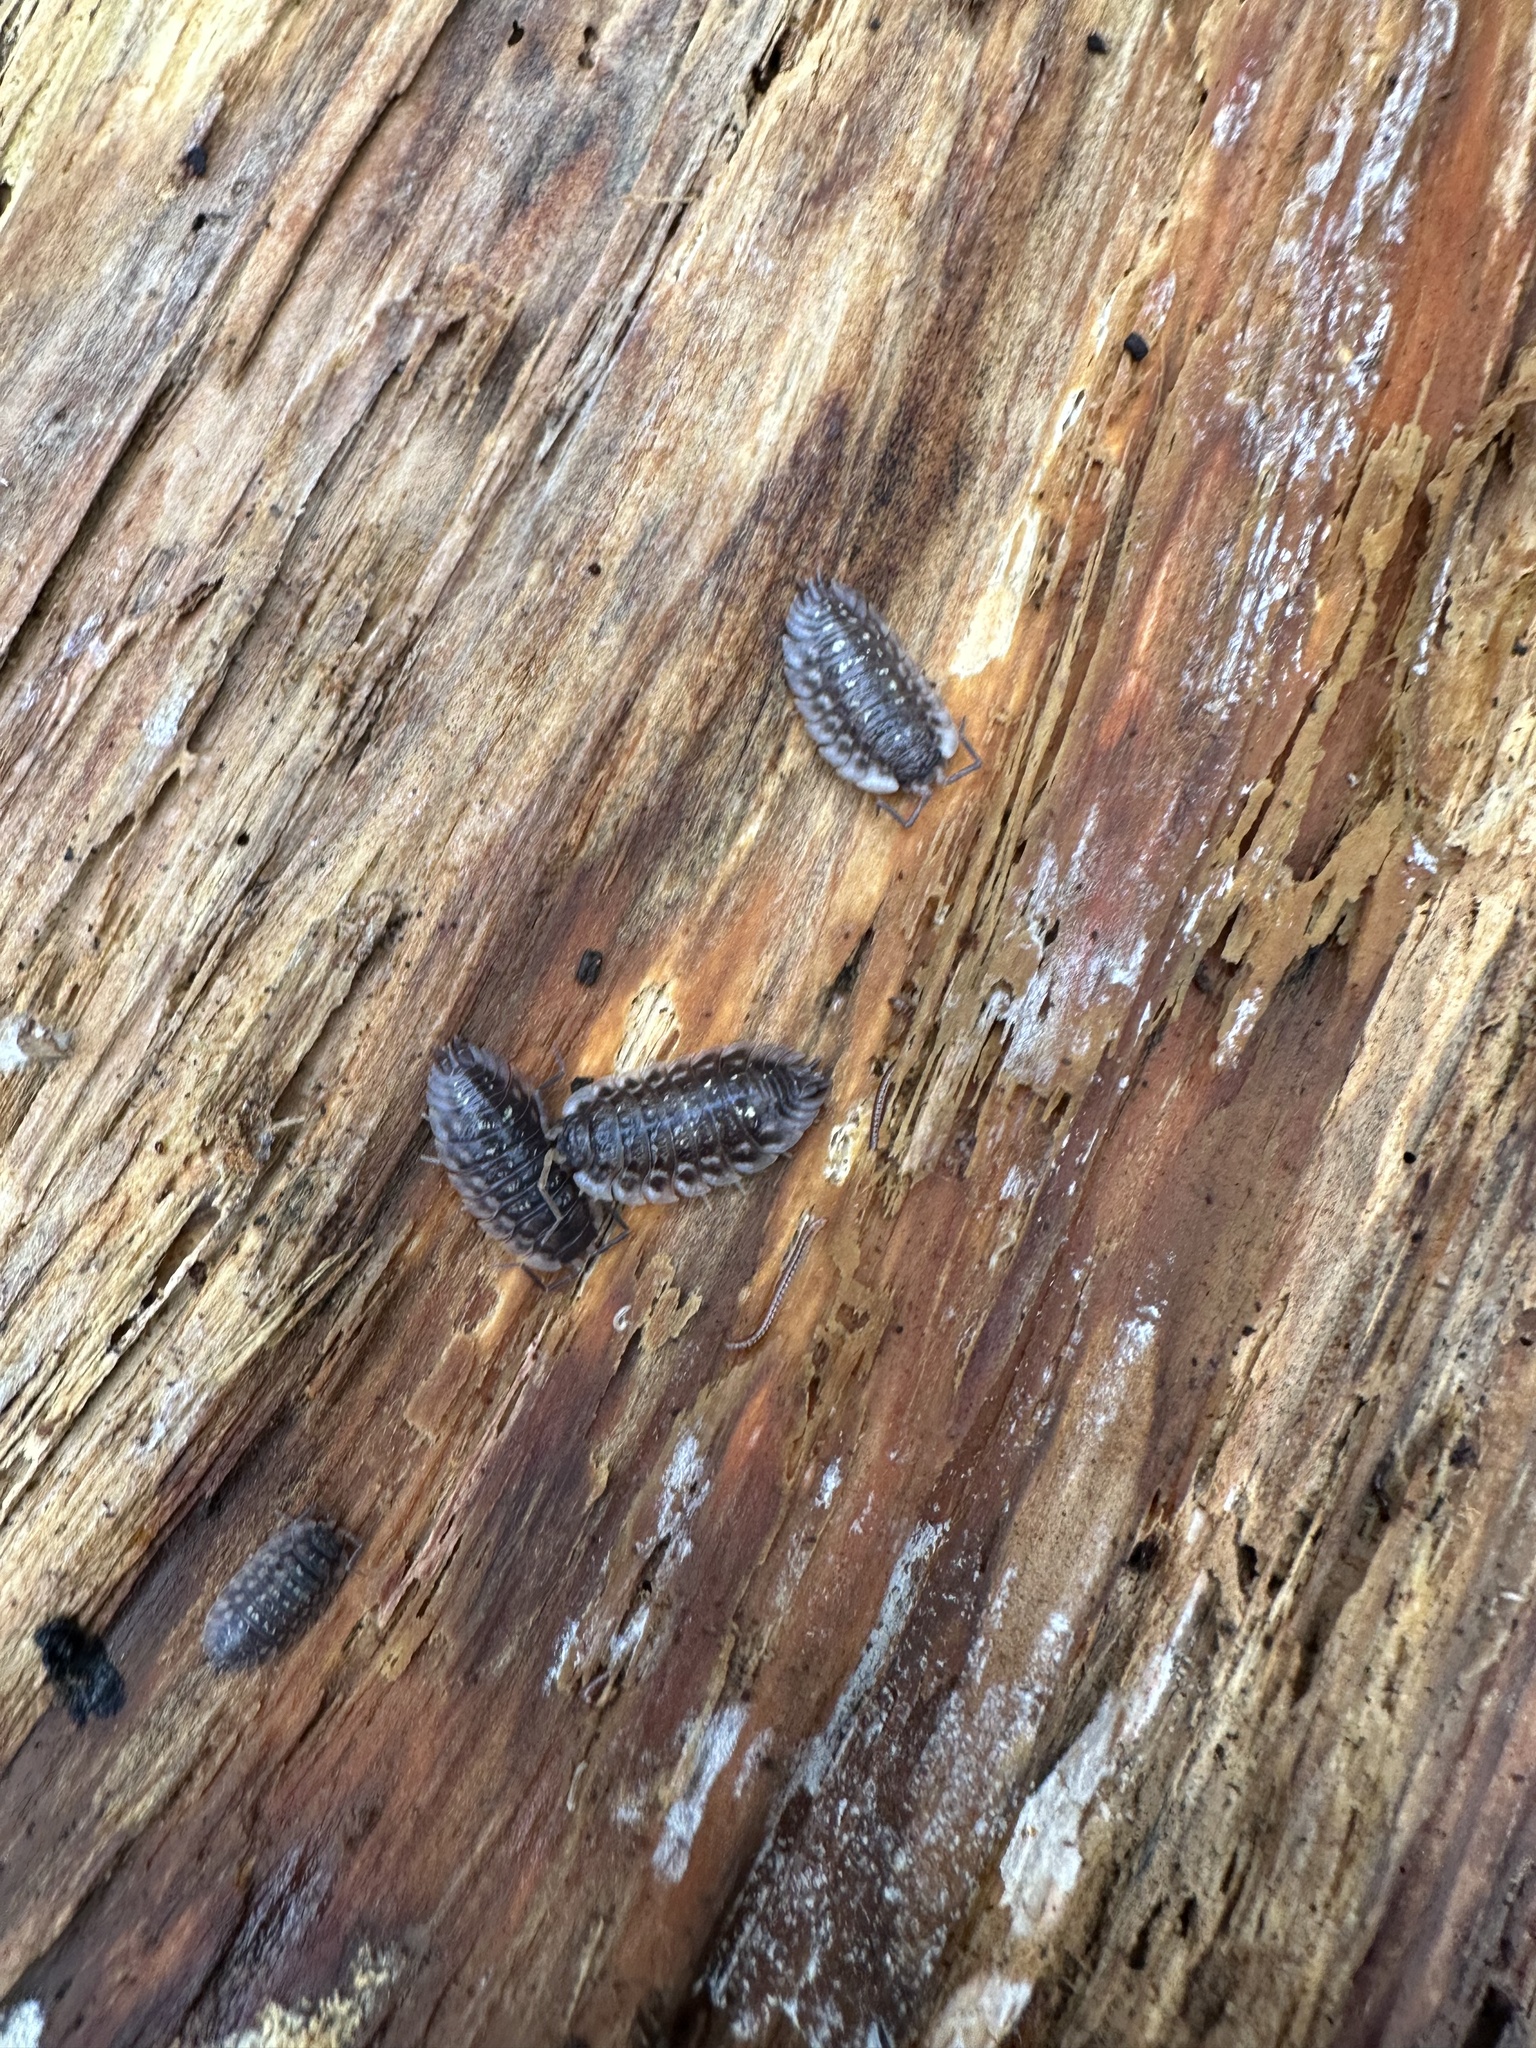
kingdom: Animalia
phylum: Arthropoda
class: Malacostraca
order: Isopoda
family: Oniscidae
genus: Oniscus
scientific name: Oniscus asellus
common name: Common shiny woodlouse
